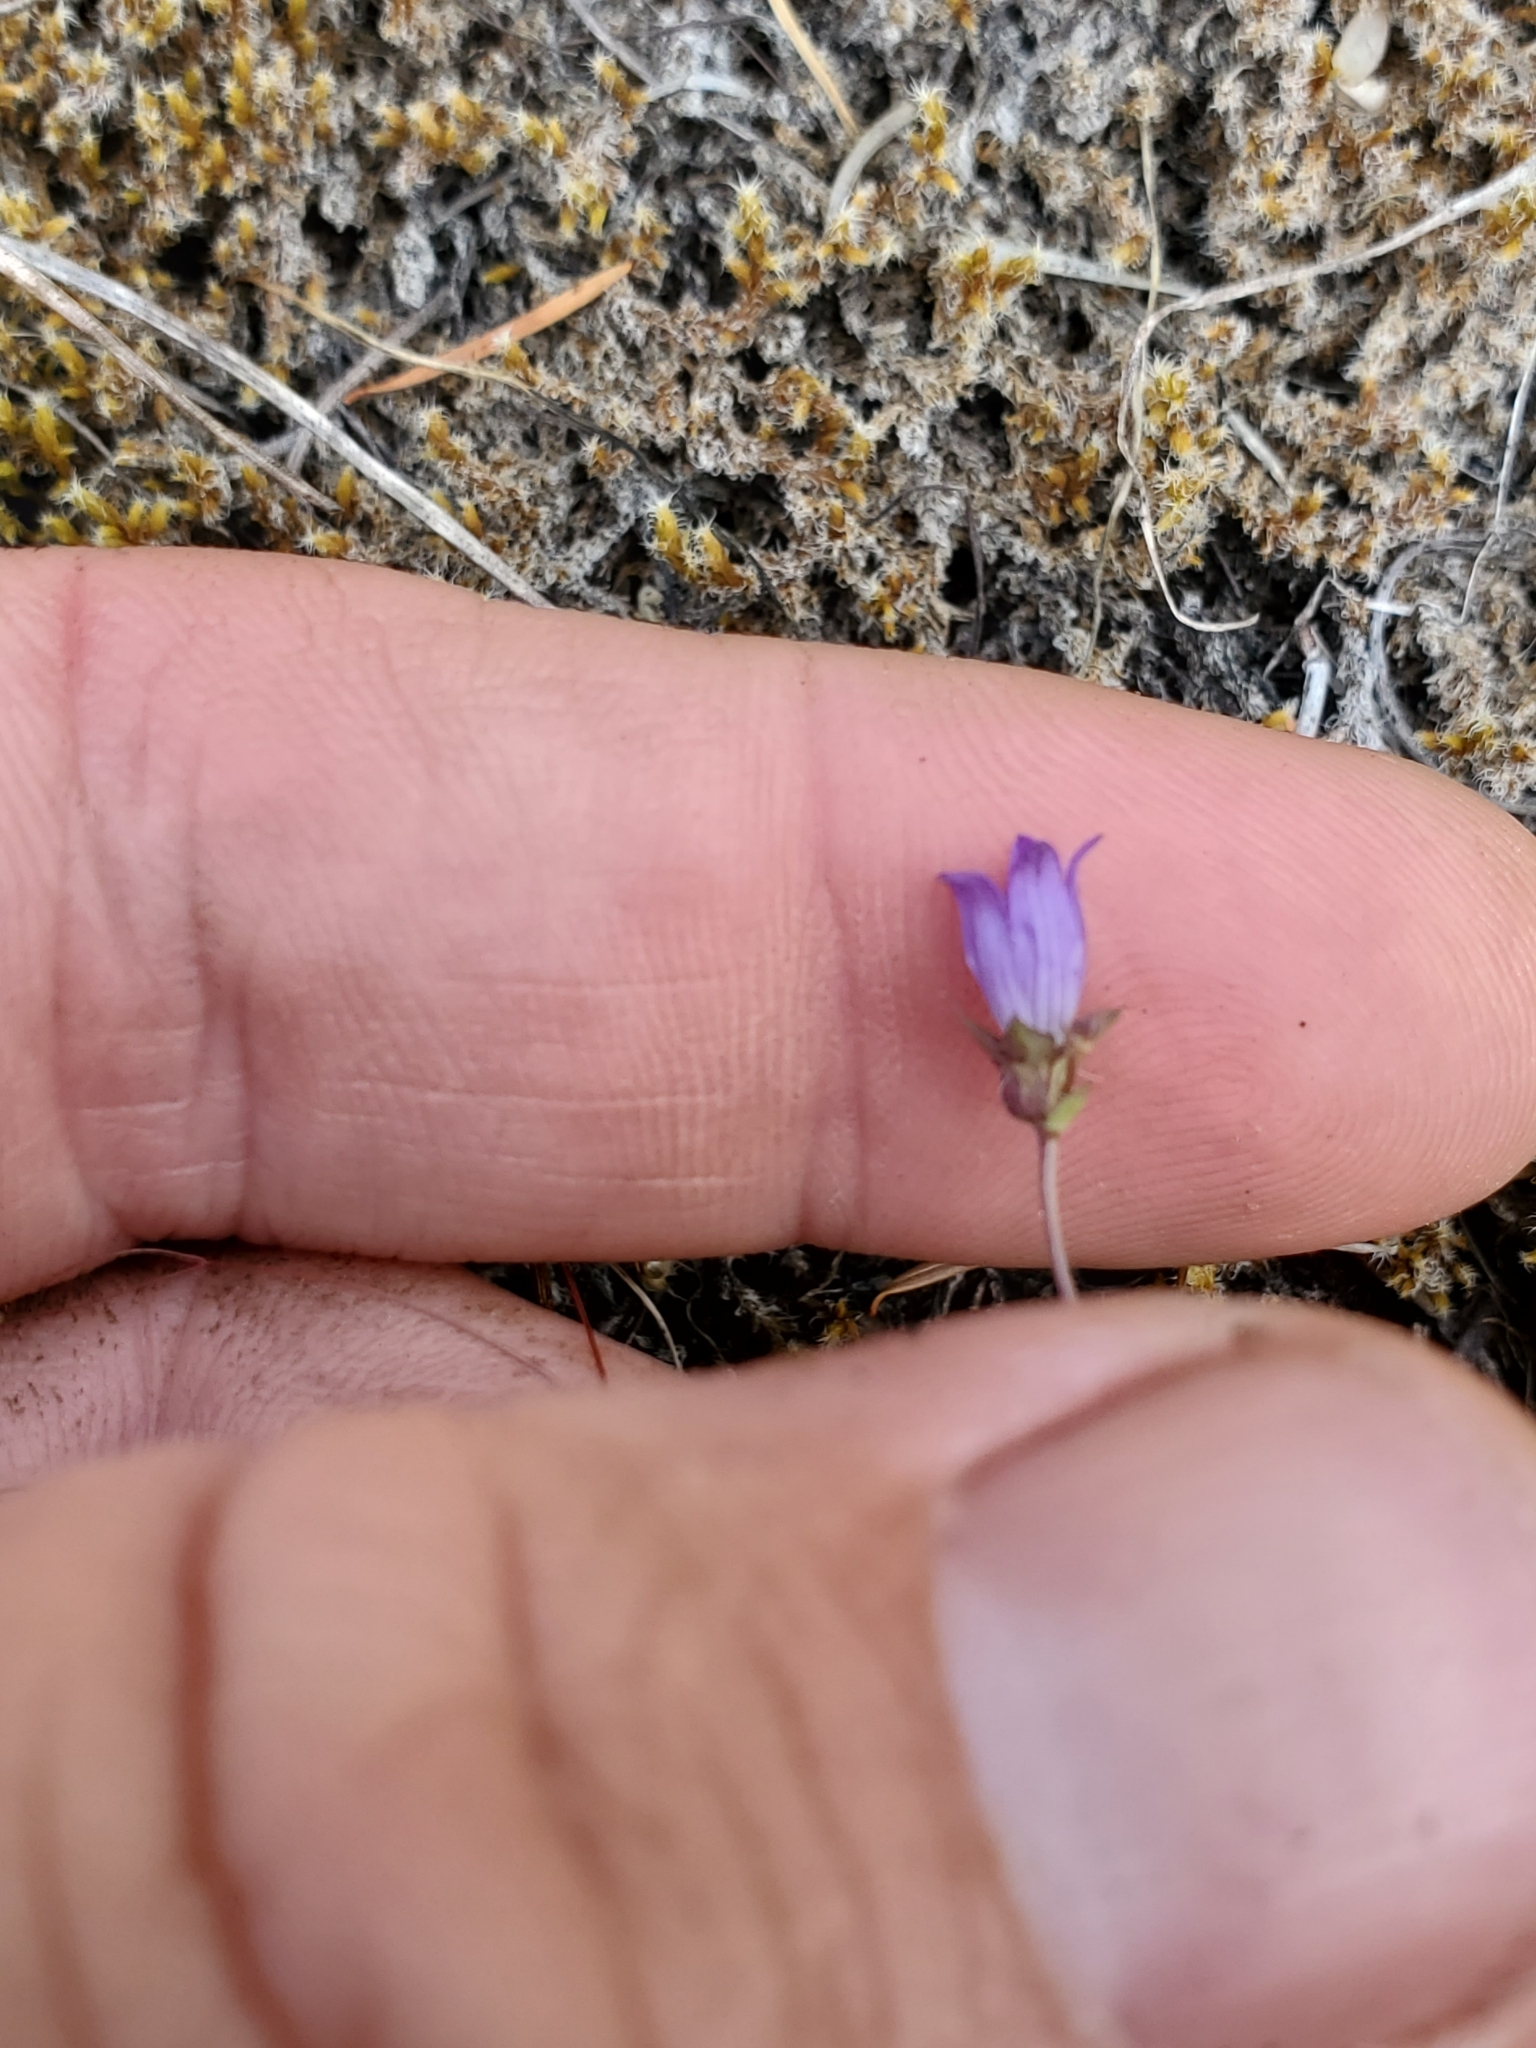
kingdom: Plantae
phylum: Tracheophyta
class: Magnoliopsida
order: Asterales
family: Campanulaceae
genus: Heterocodon
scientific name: Heterocodon rariflorum
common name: Rareflower heterocodon
